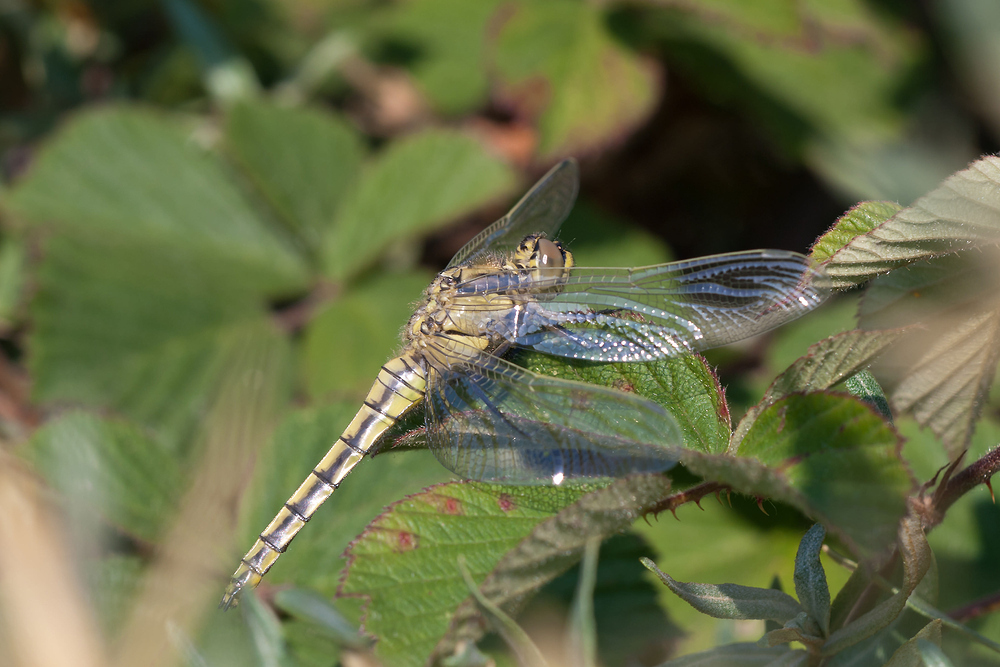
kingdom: Animalia
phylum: Arthropoda
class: Insecta
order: Odonata
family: Libellulidae
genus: Orthetrum
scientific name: Orthetrum cancellatum
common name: Black-tailed skimmer
